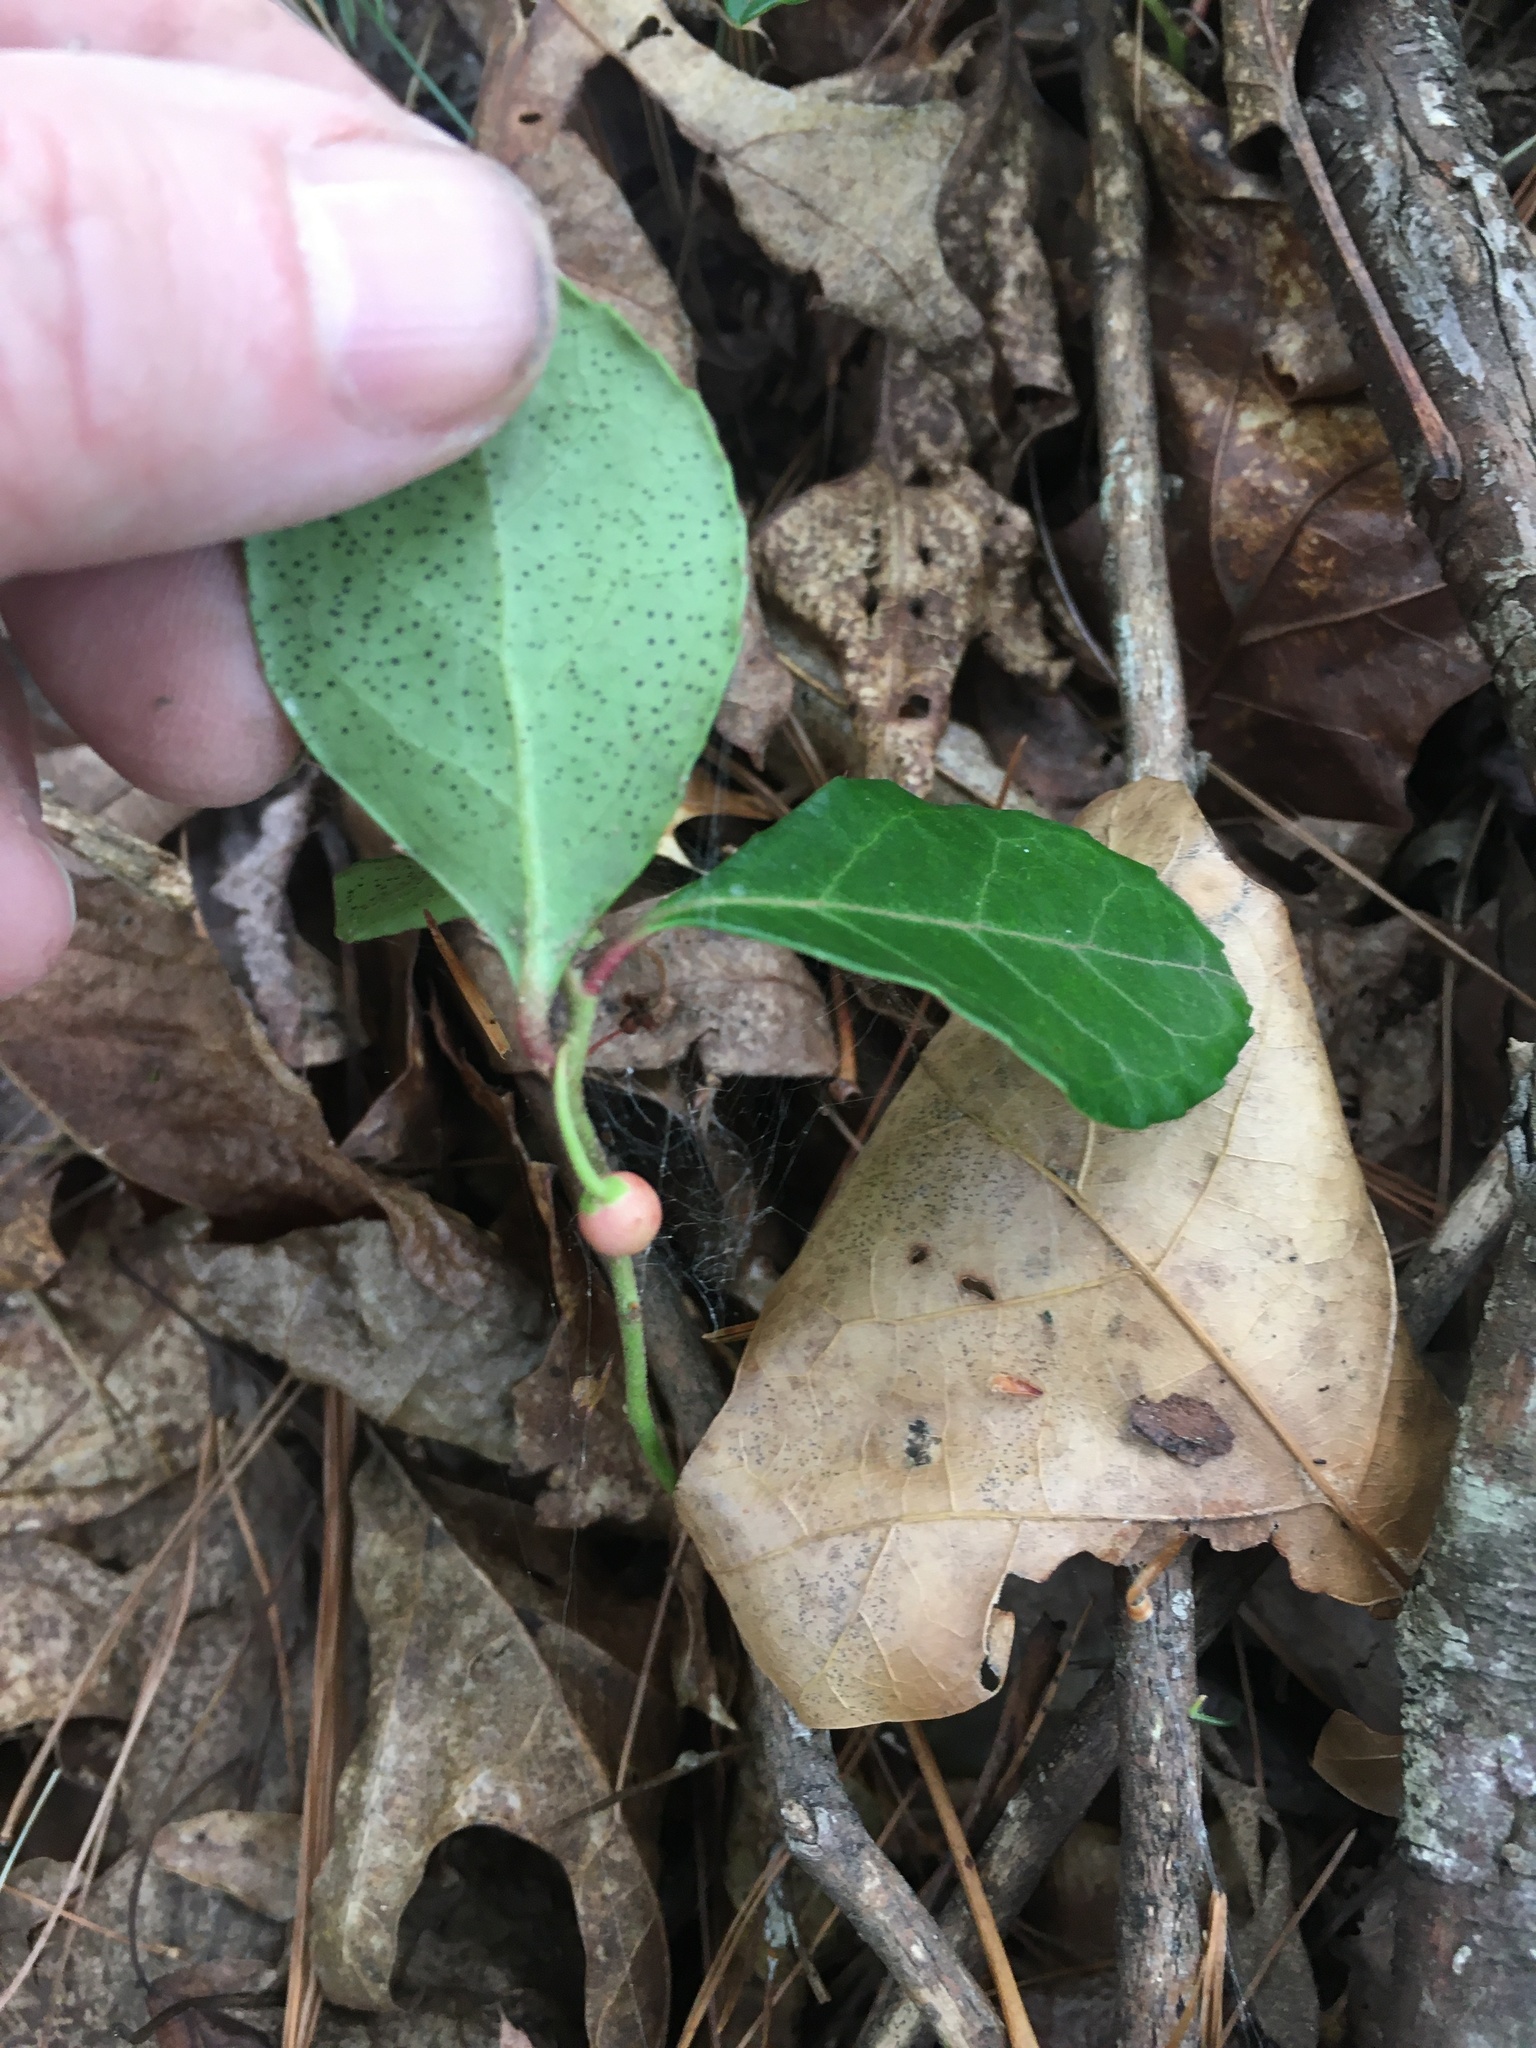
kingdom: Plantae
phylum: Tracheophyta
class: Magnoliopsida
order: Ericales
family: Ericaceae
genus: Gaultheria
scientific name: Gaultheria procumbens
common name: Checkerberry
